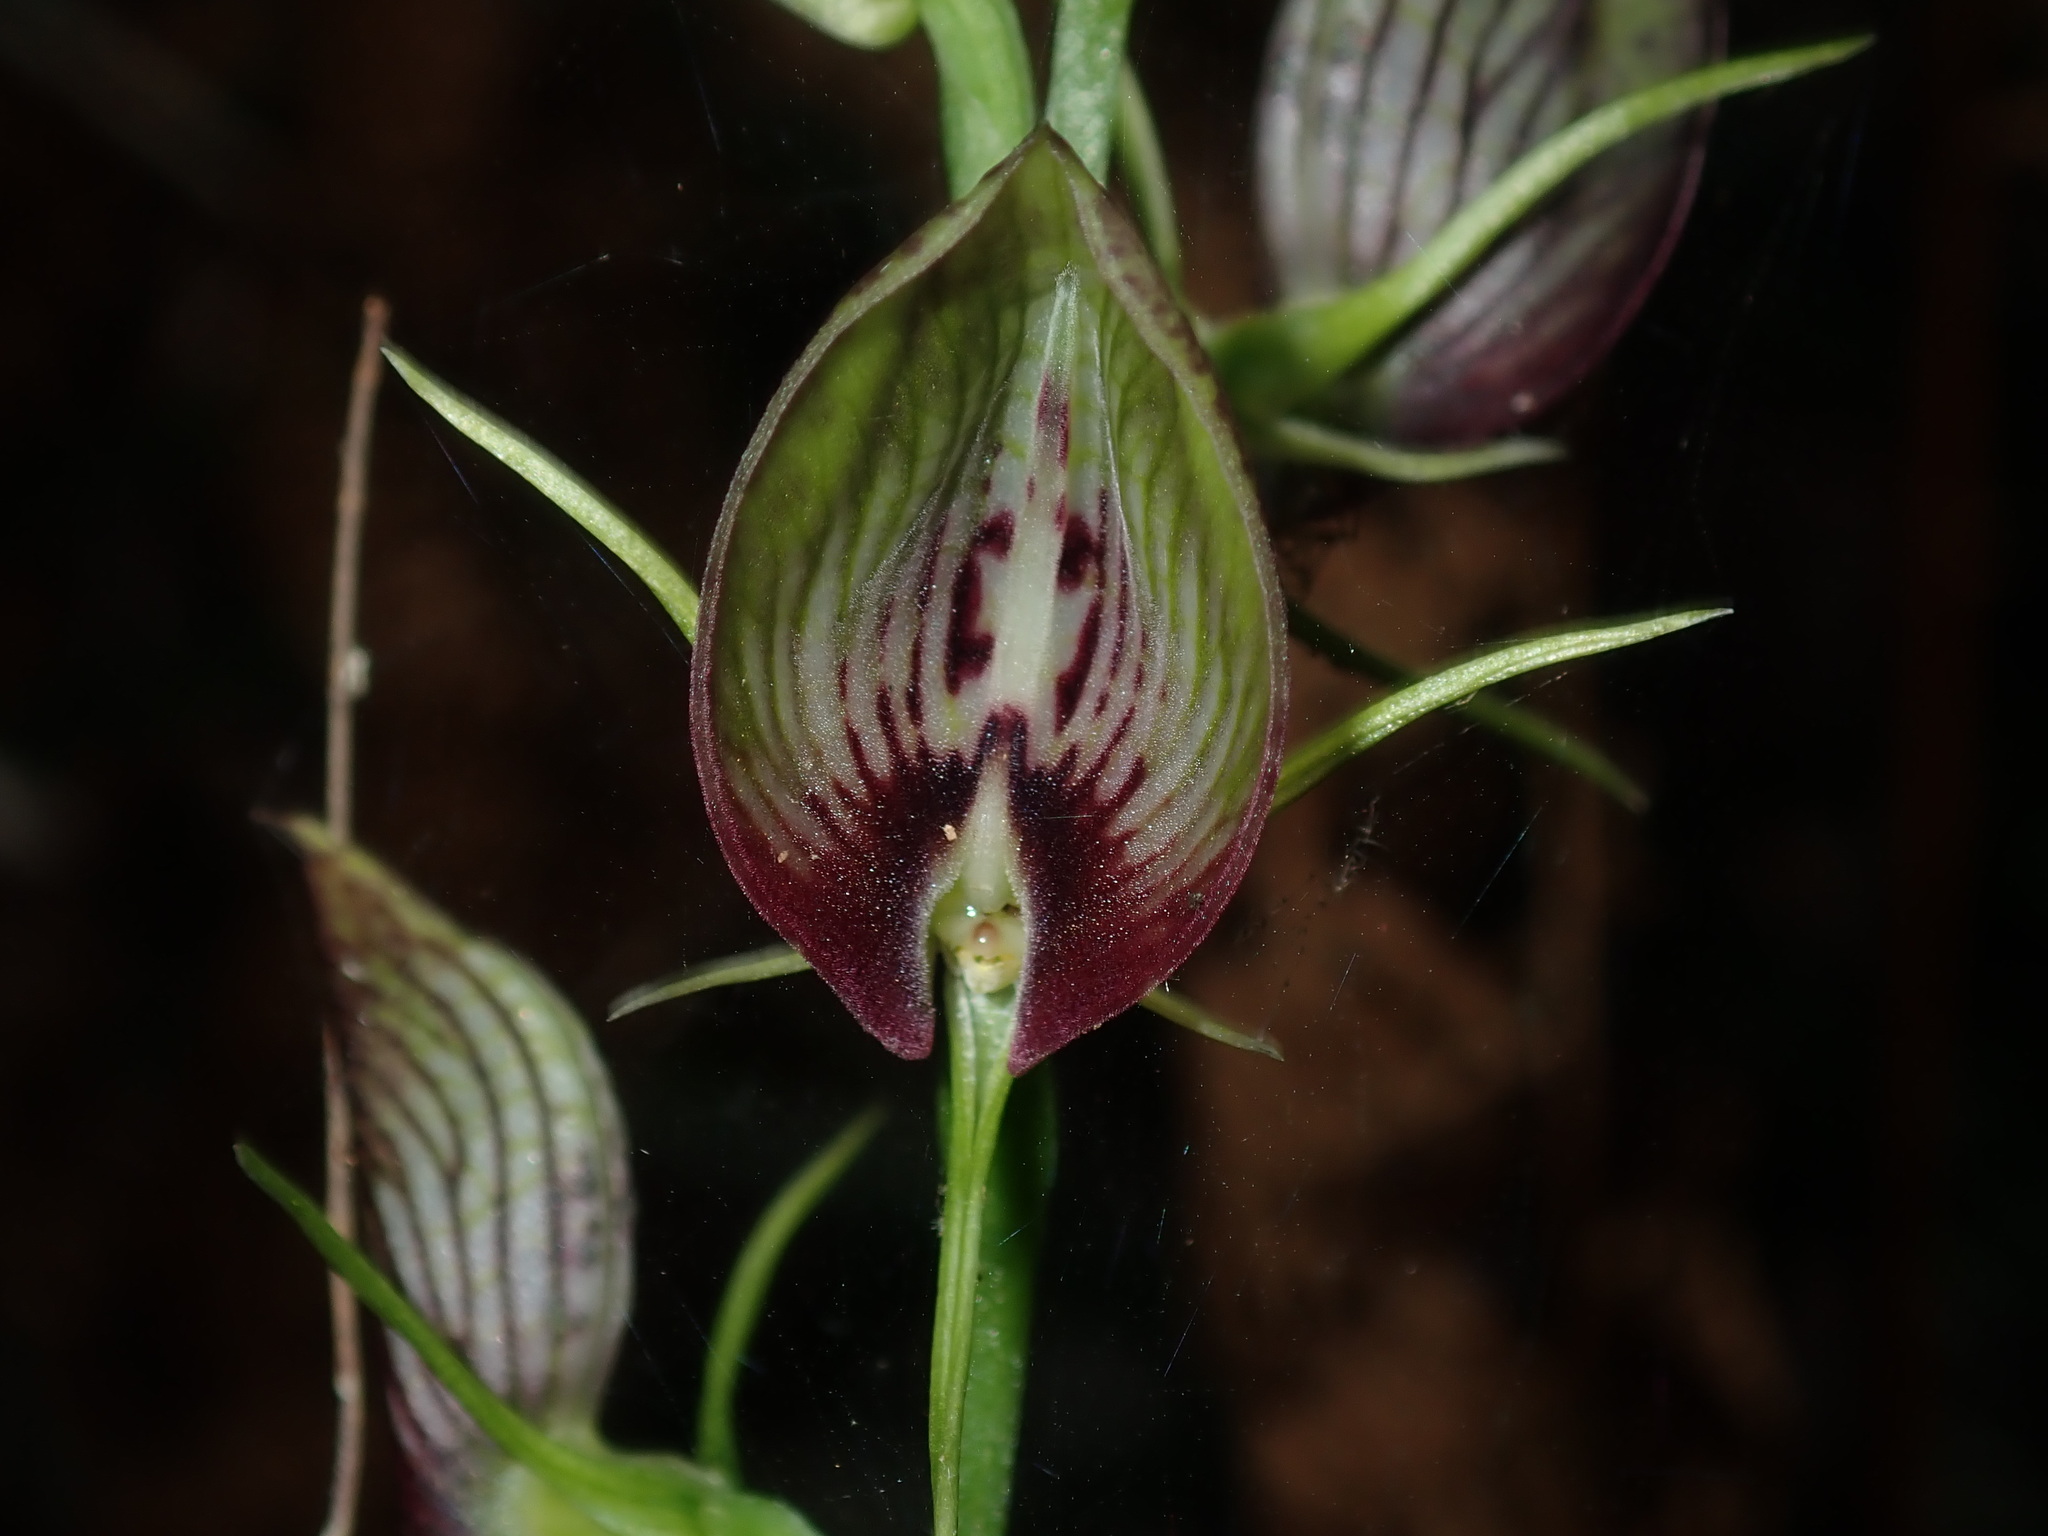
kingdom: Plantae
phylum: Tracheophyta
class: Liliopsida
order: Asparagales
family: Orchidaceae
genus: Cryptostylis
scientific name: Cryptostylis erecta
